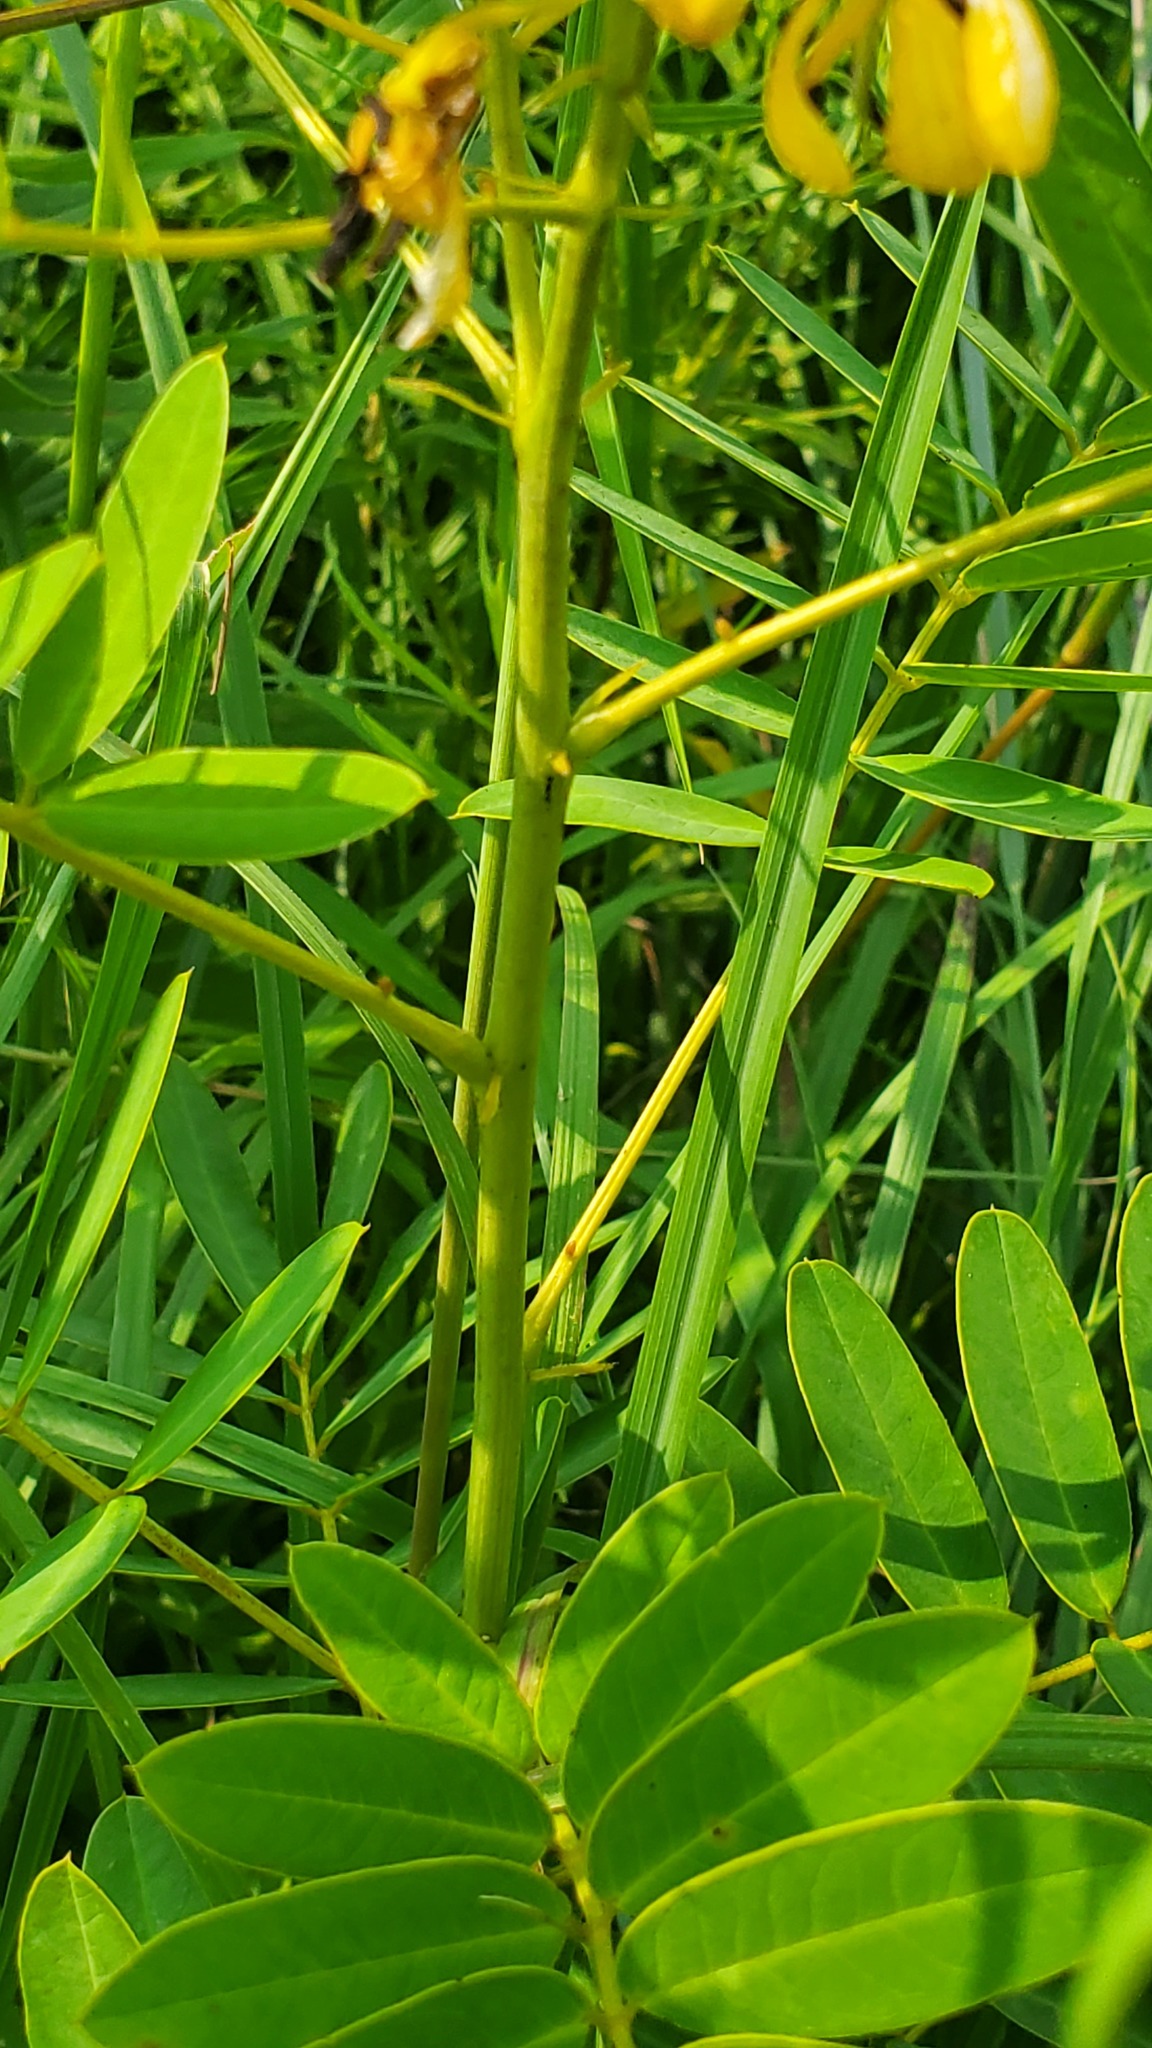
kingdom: Plantae
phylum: Tracheophyta
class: Magnoliopsida
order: Fabales
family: Fabaceae
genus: Senna
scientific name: Senna
